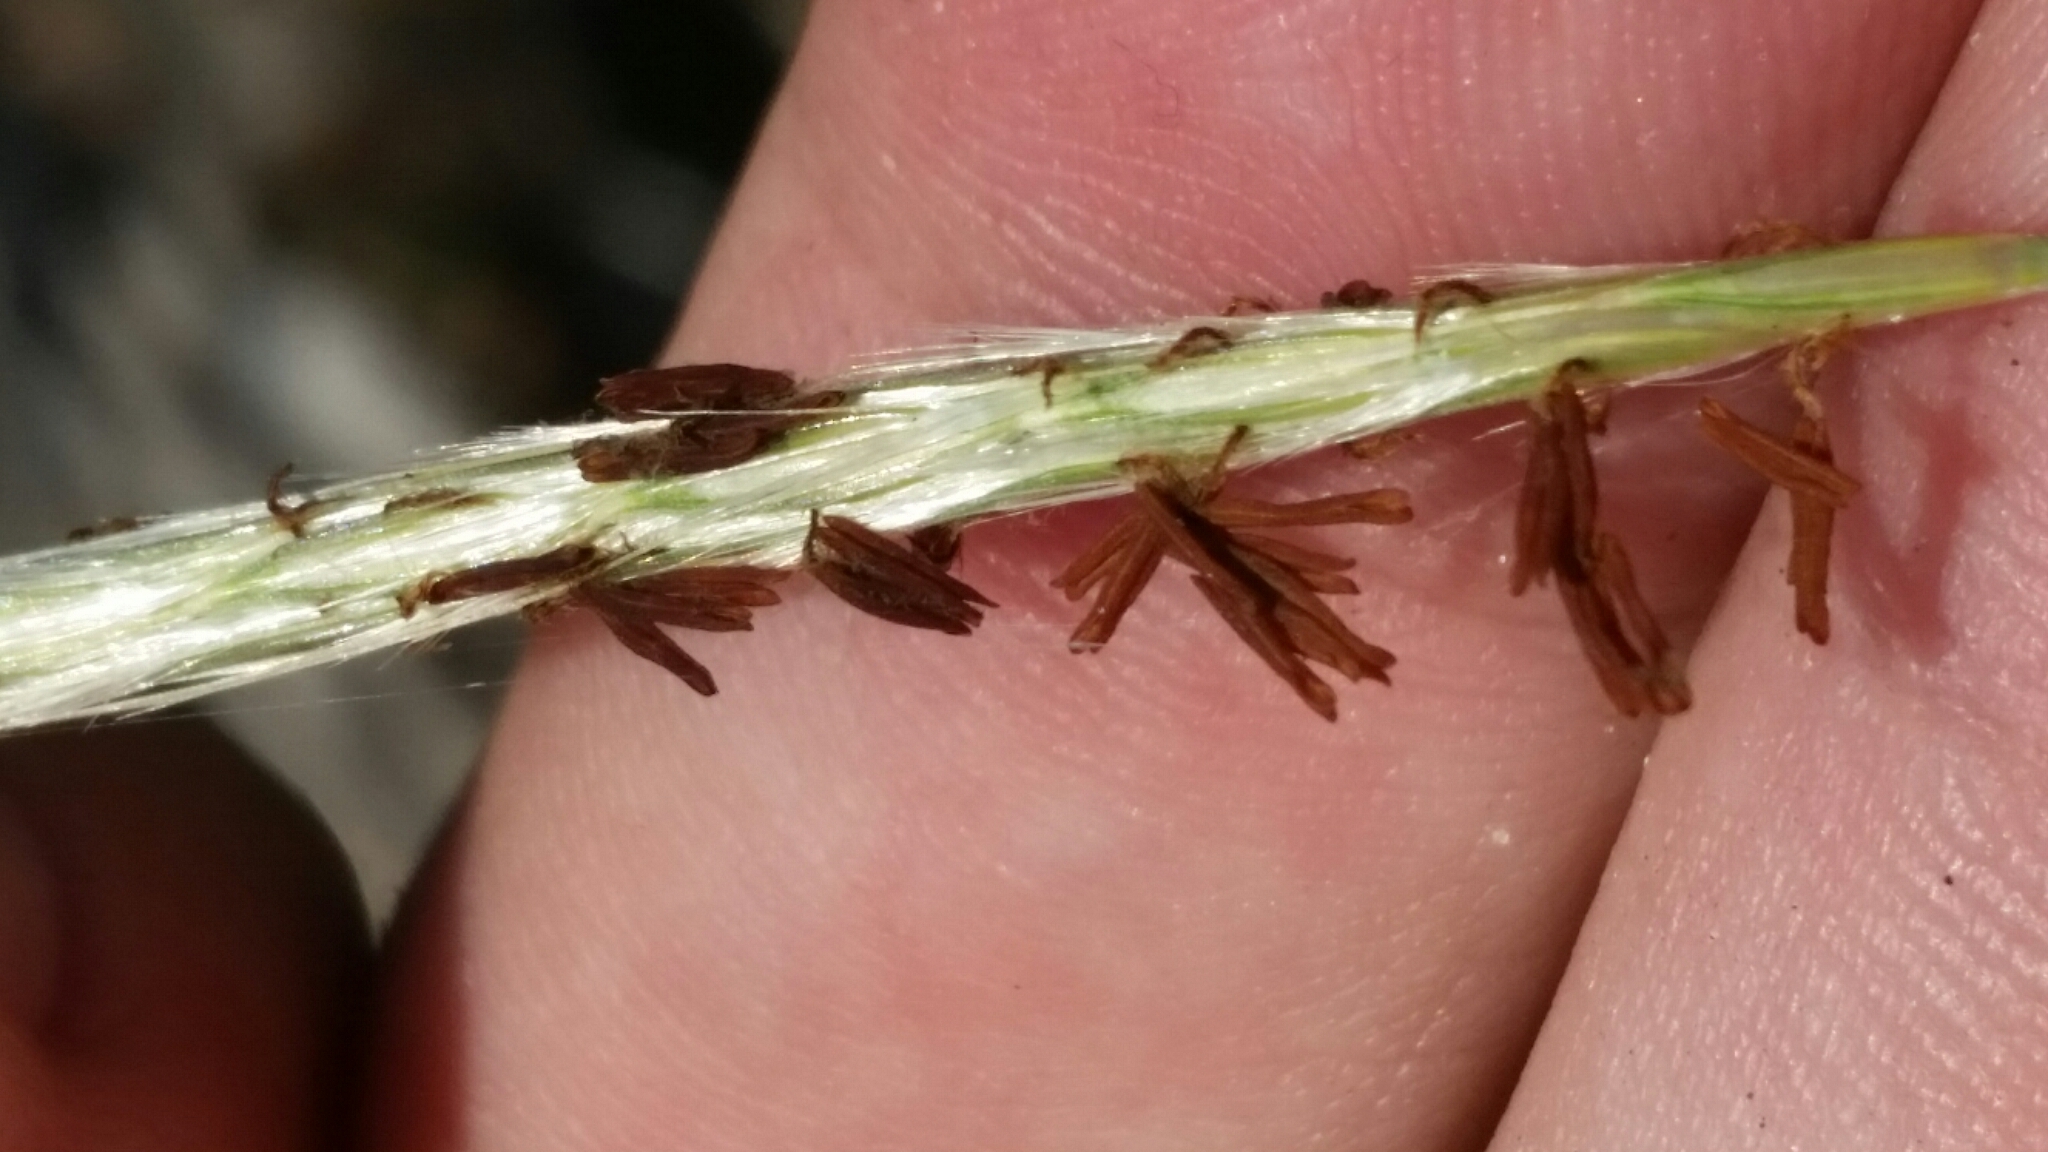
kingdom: Plantae
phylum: Tracheophyta
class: Liliopsida
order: Poales
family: Poaceae
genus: Andropogon
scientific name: Andropogon cabanisii
